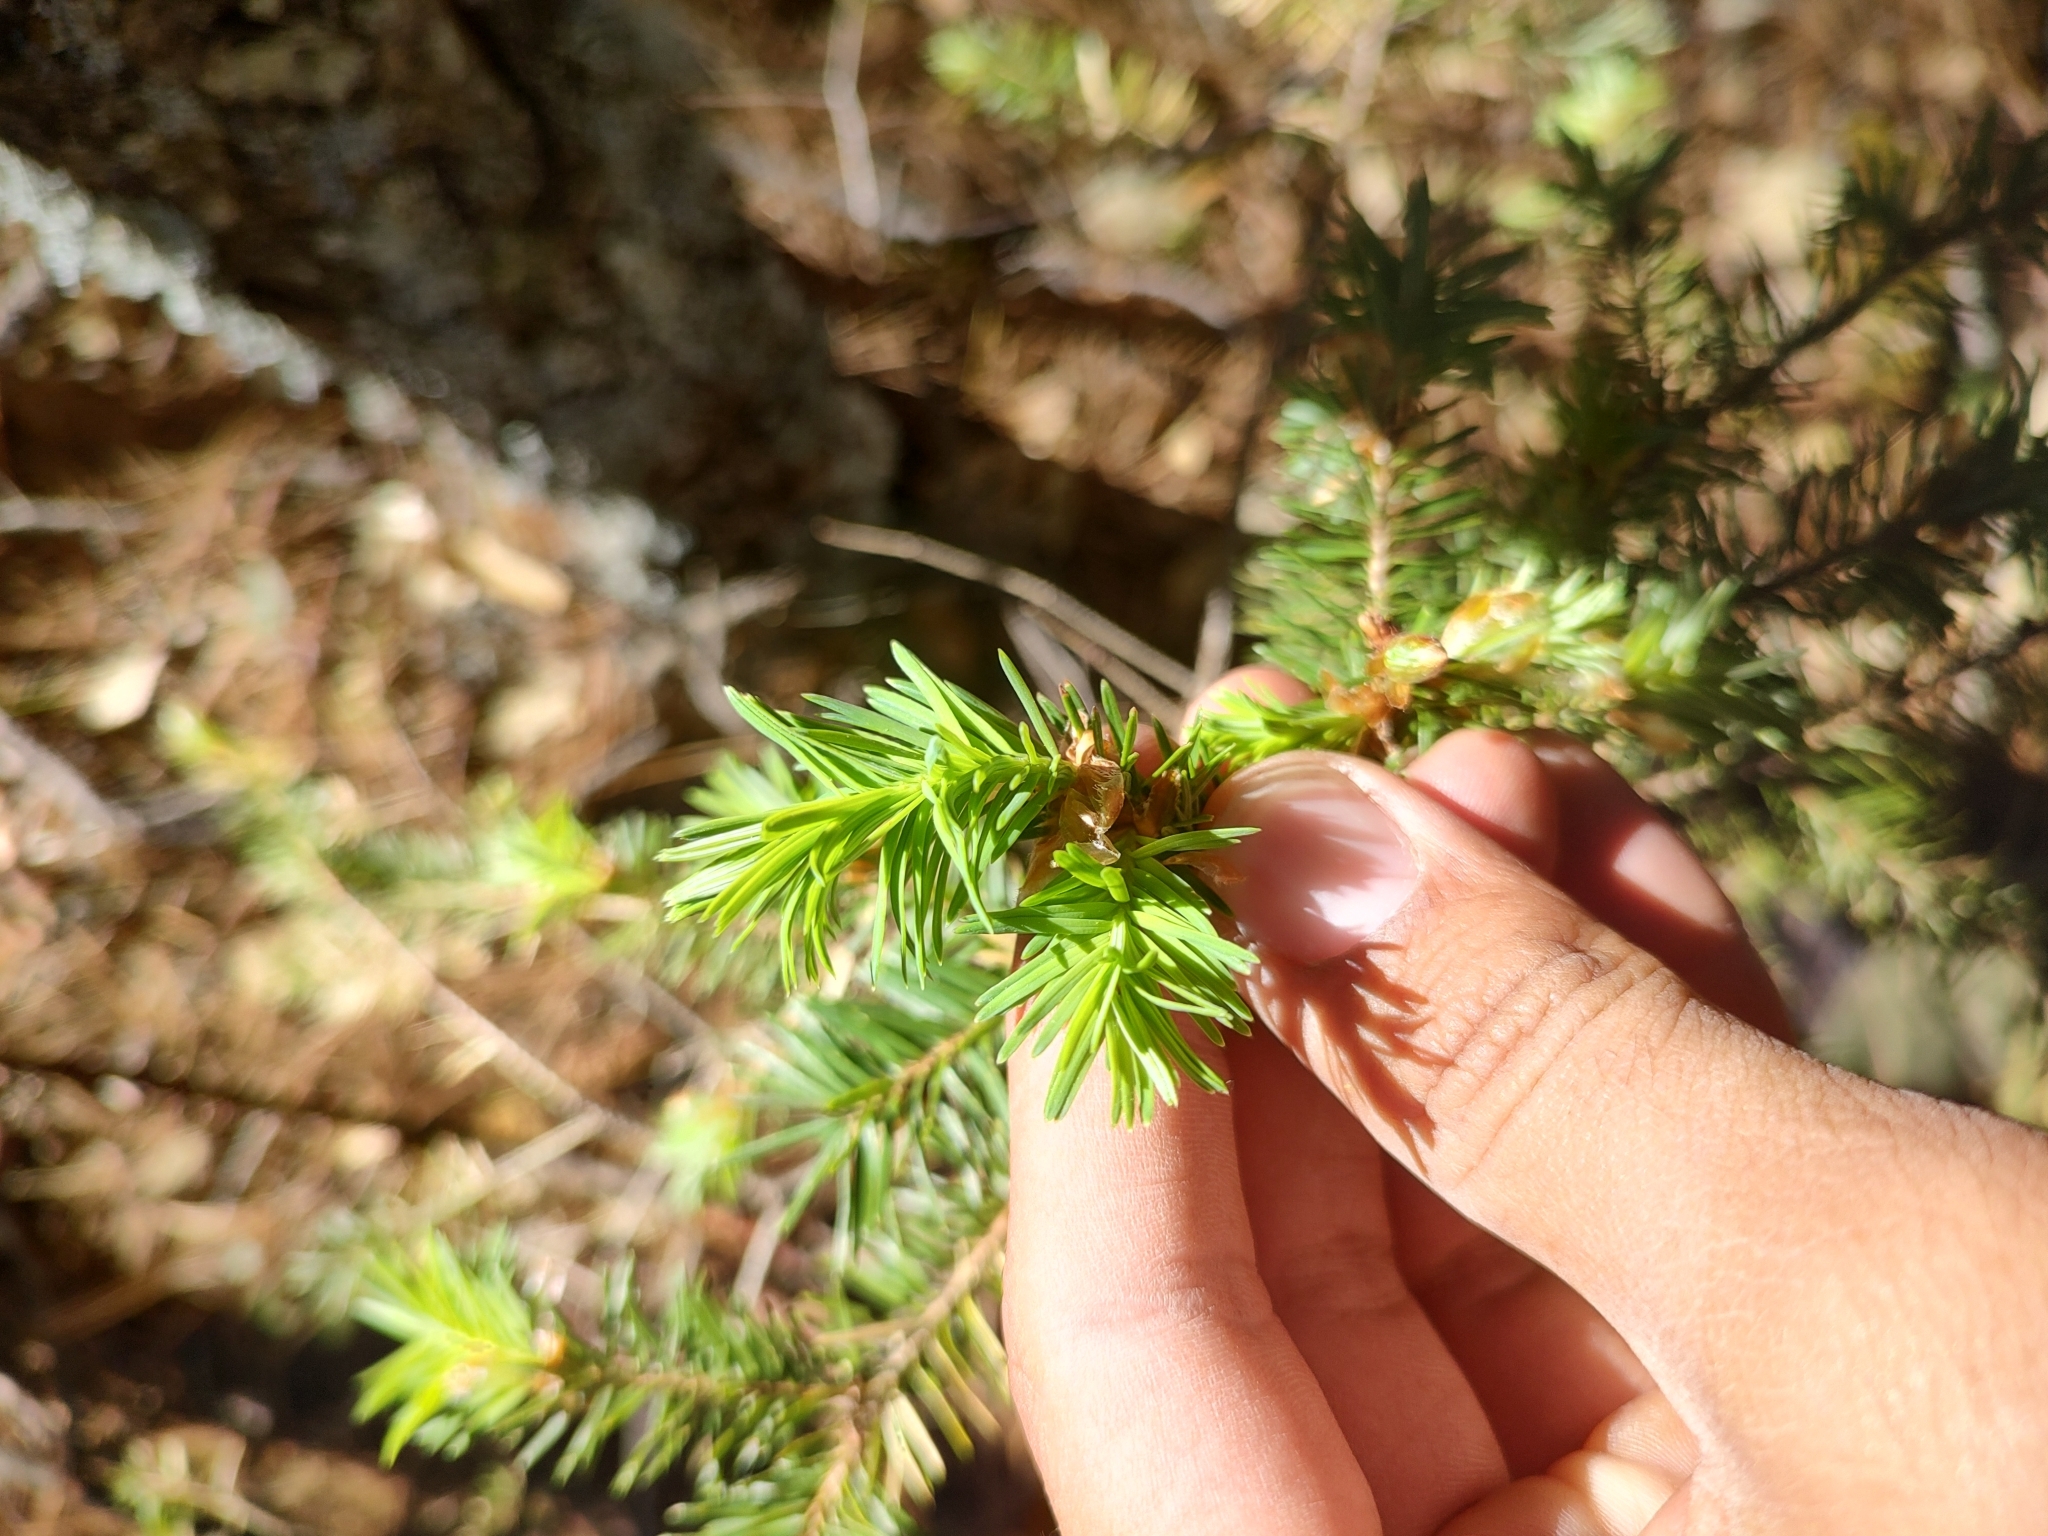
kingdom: Plantae
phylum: Tracheophyta
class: Pinopsida
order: Pinales
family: Pinaceae
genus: Pseudotsuga
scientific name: Pseudotsuga menziesii
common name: Douglas fir
